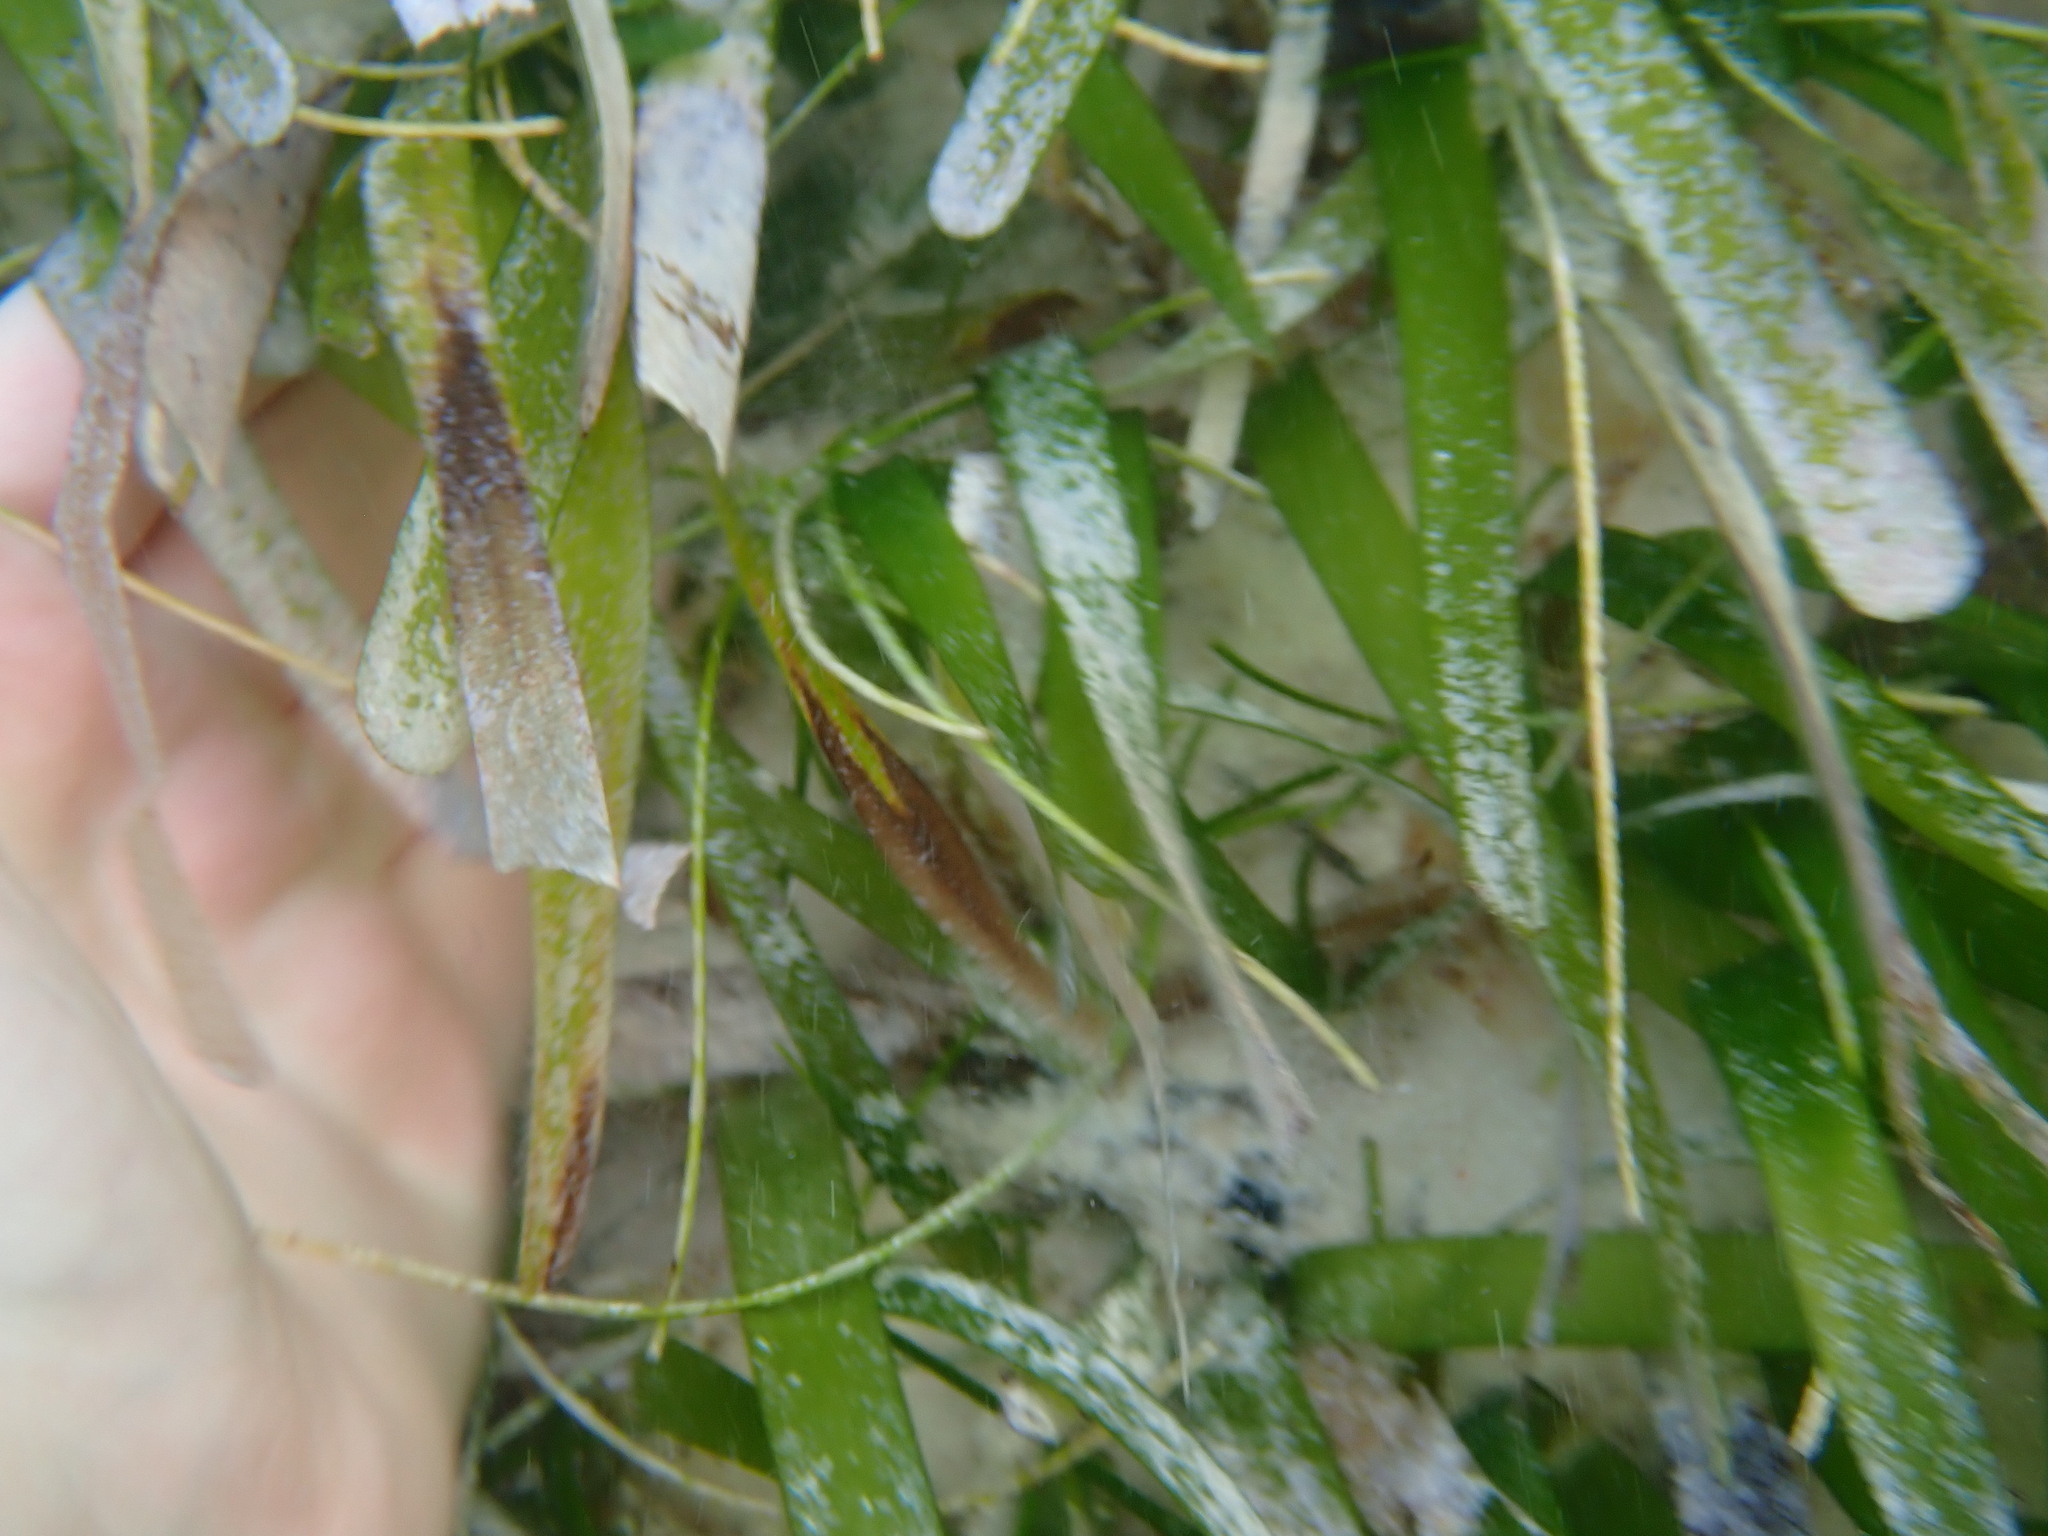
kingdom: Plantae
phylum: Tracheophyta
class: Liliopsida
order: Alismatales
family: Hydrocharitaceae
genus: Thalassia
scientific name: Thalassia testudinum
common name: Species code: tt
